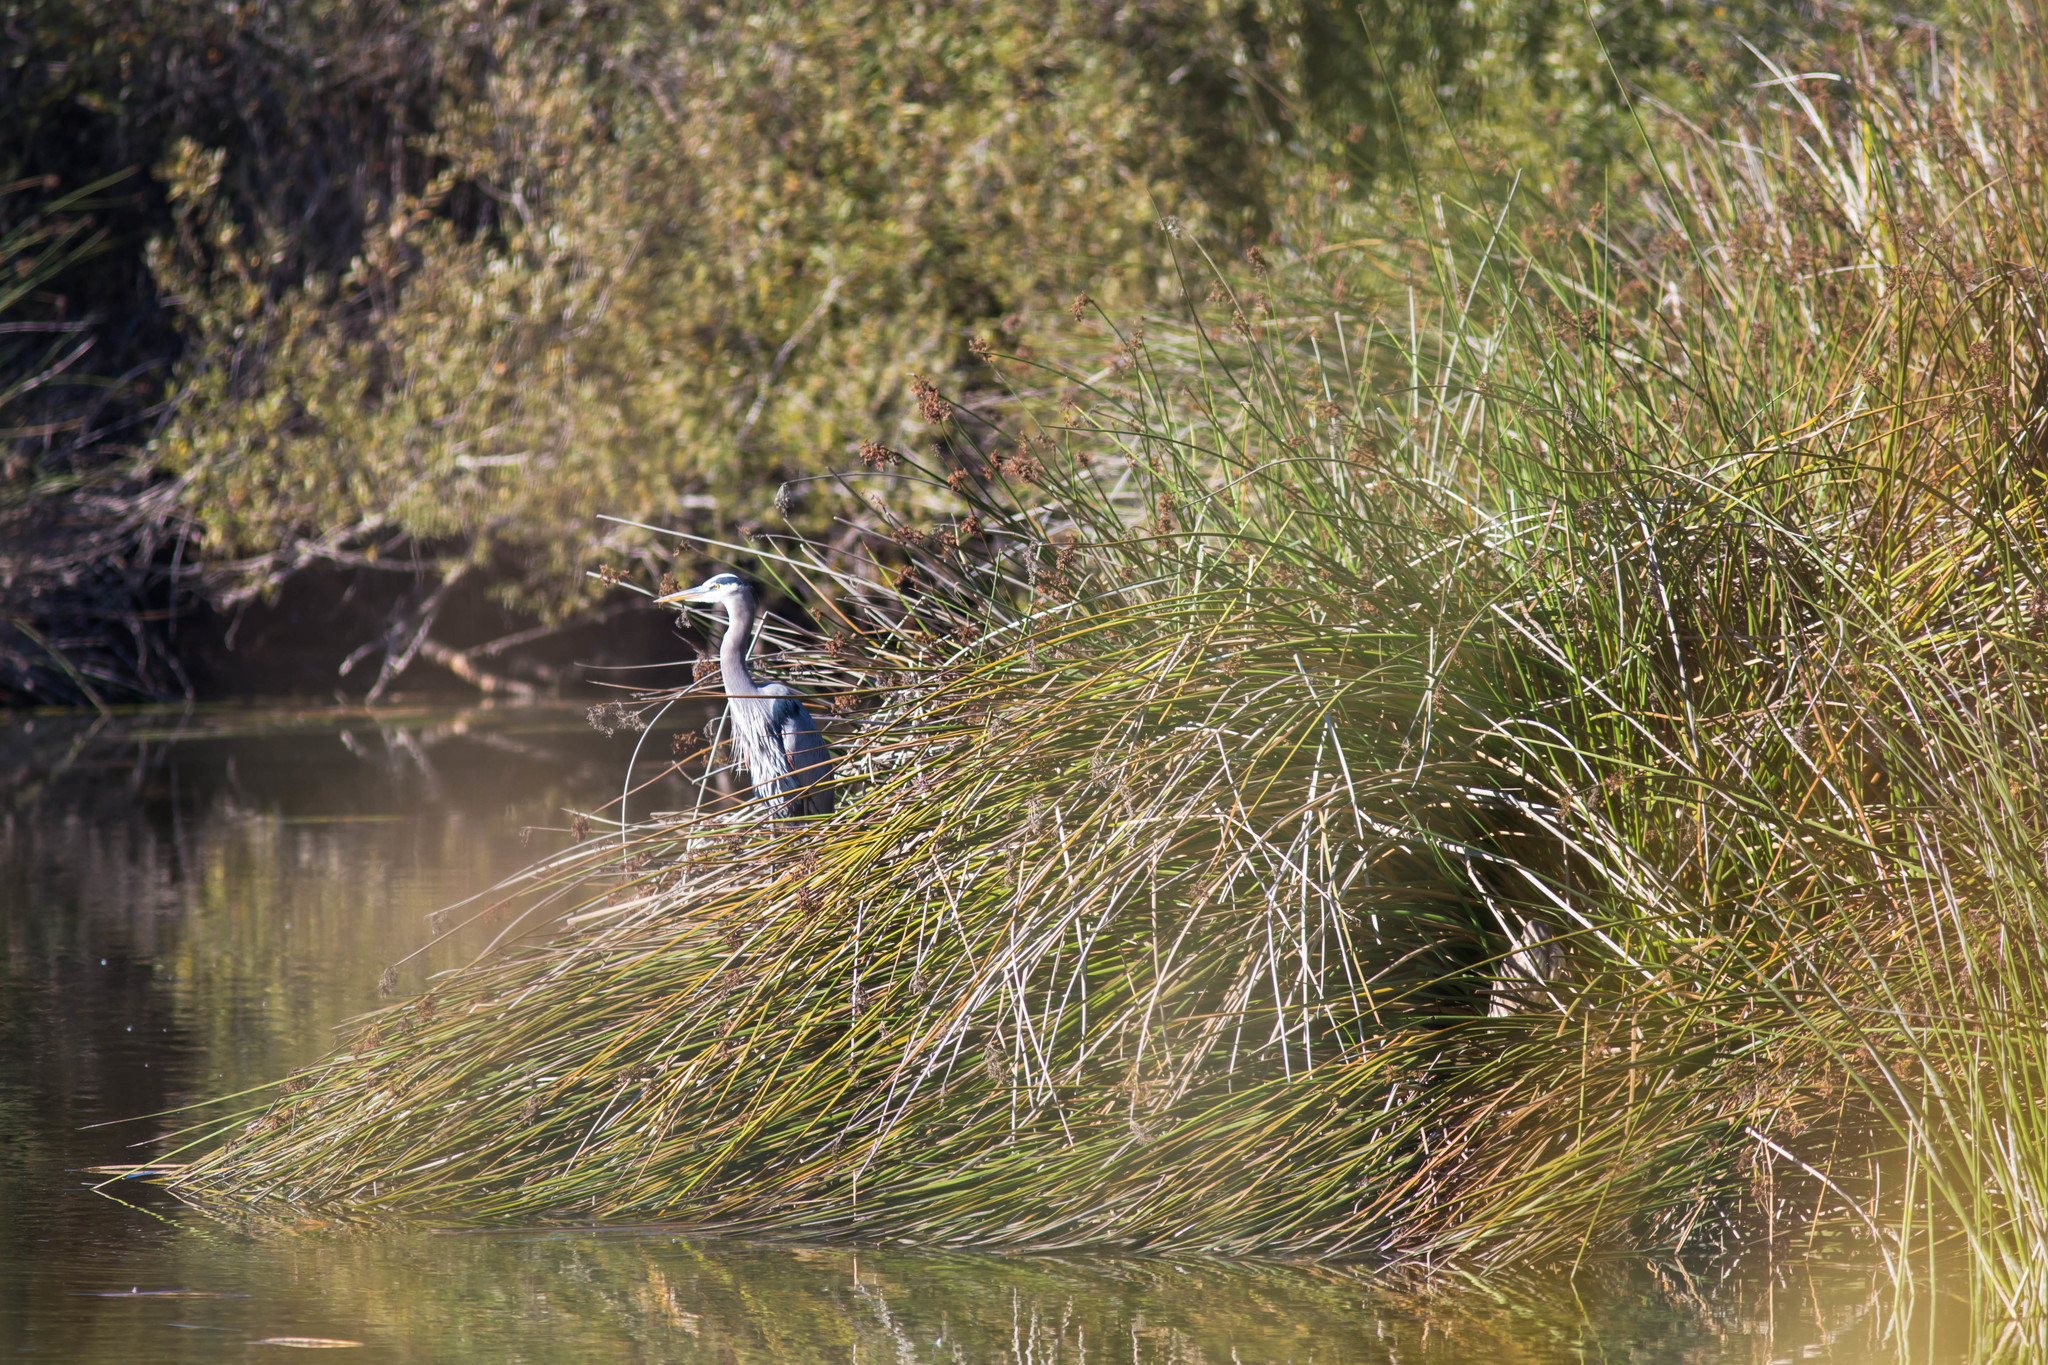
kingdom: Animalia
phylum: Chordata
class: Aves
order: Pelecaniformes
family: Ardeidae
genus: Ardea
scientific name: Ardea herodias
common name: Great blue heron
